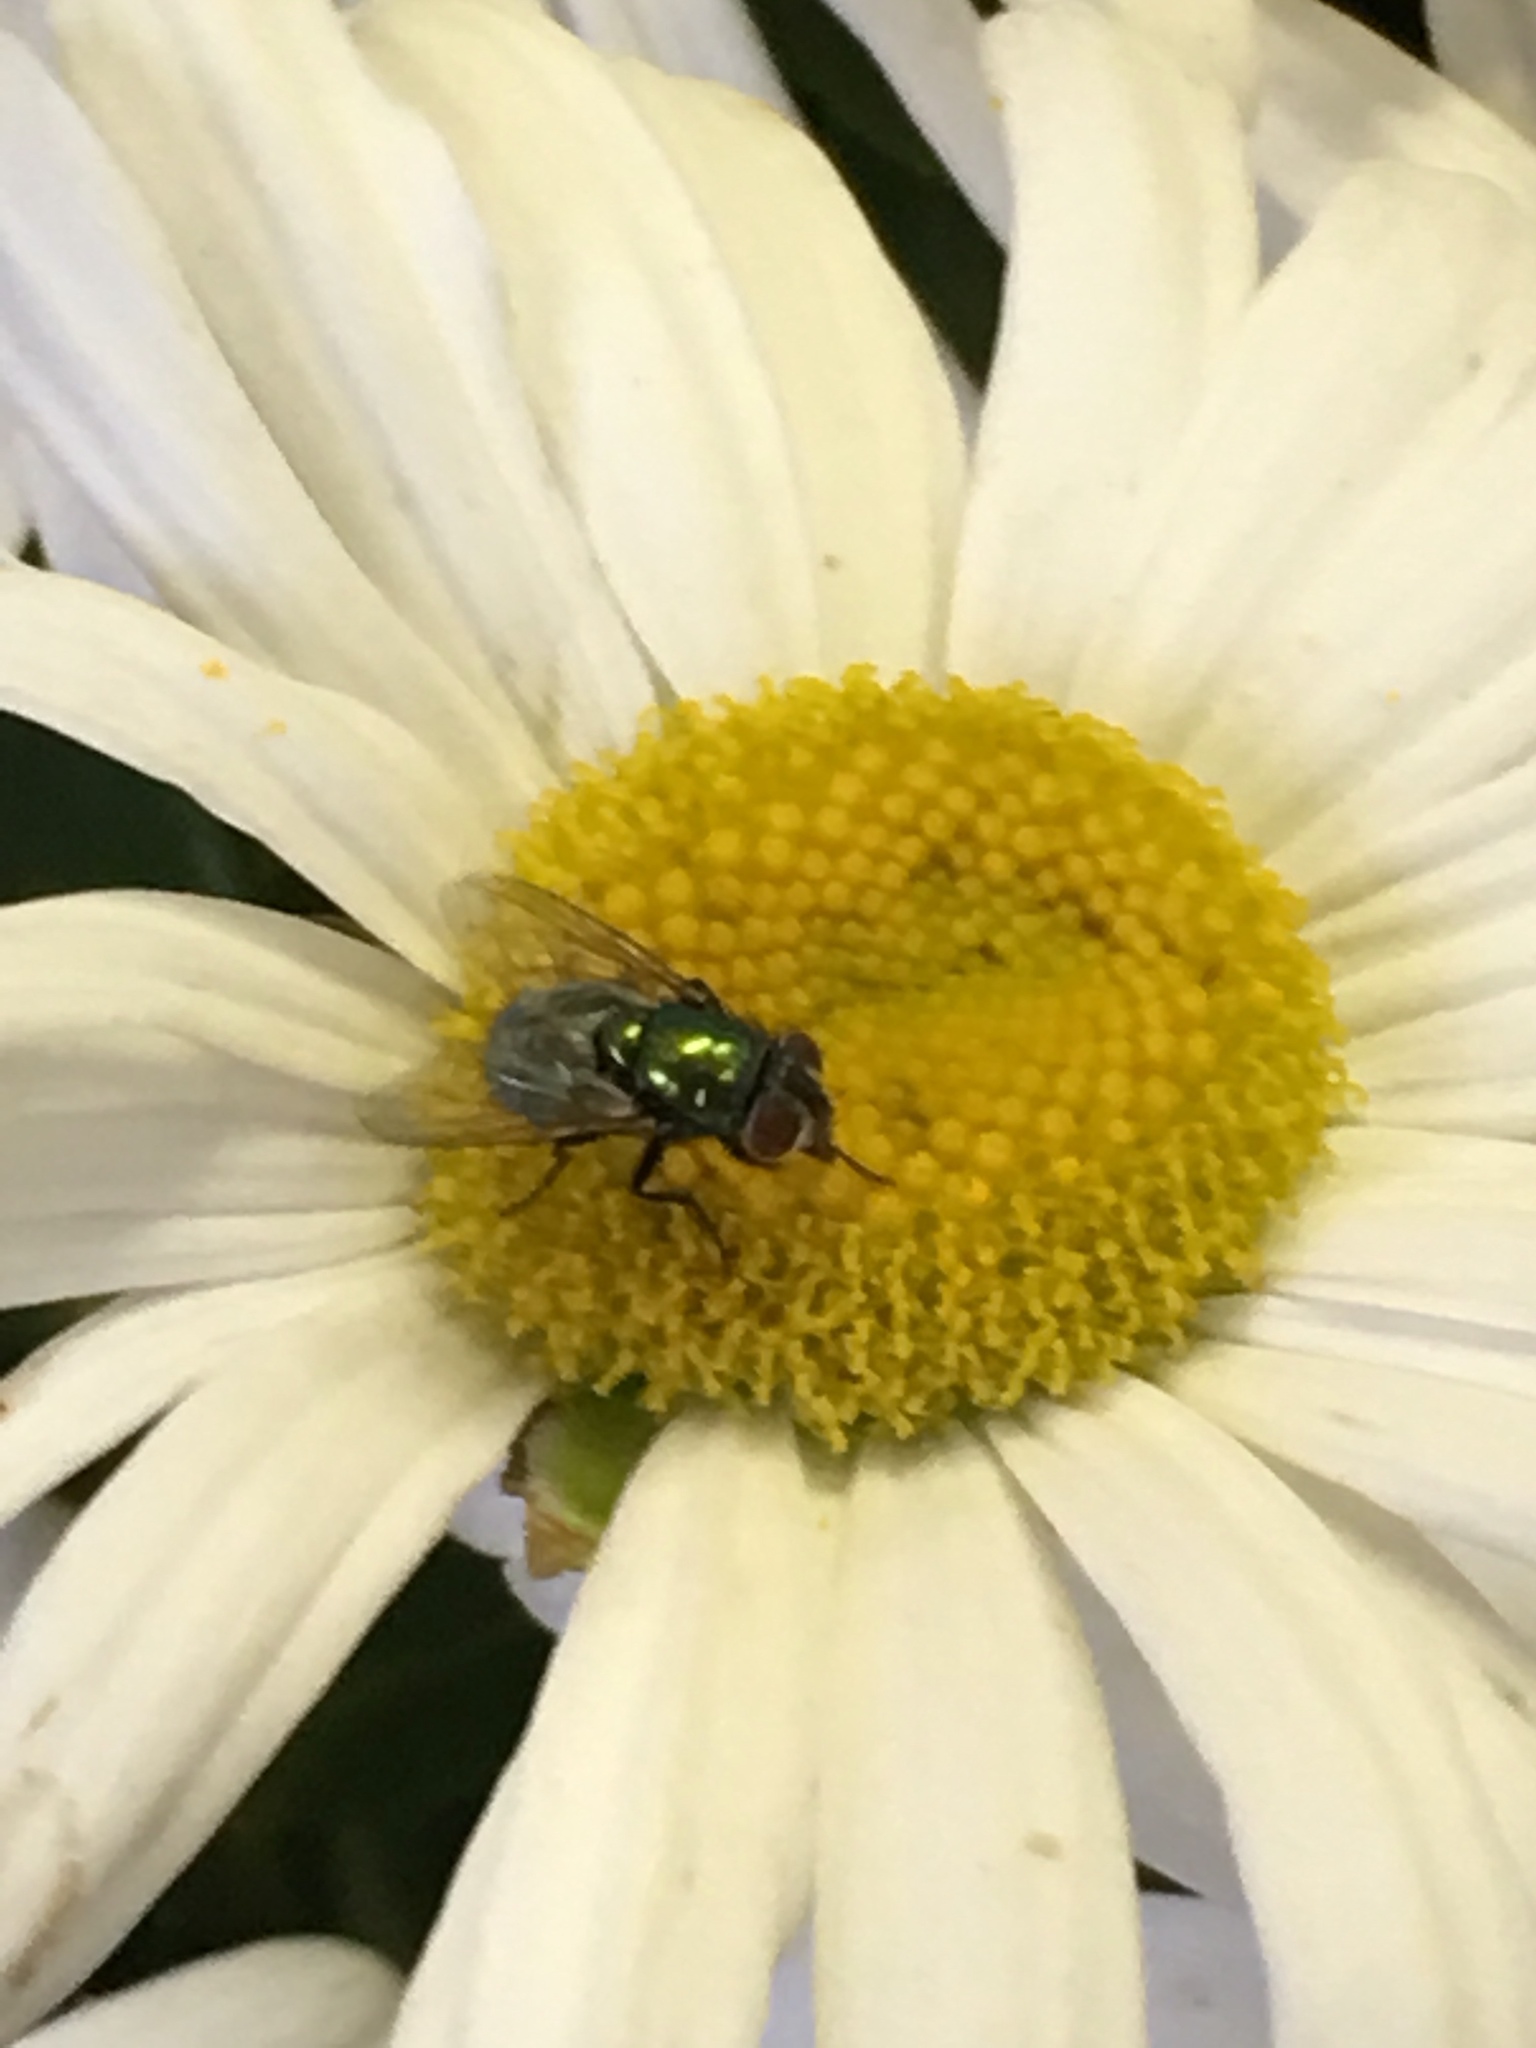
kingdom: Animalia
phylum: Arthropoda
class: Insecta
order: Diptera
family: Calliphoridae
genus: Lucilia
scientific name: Lucilia
